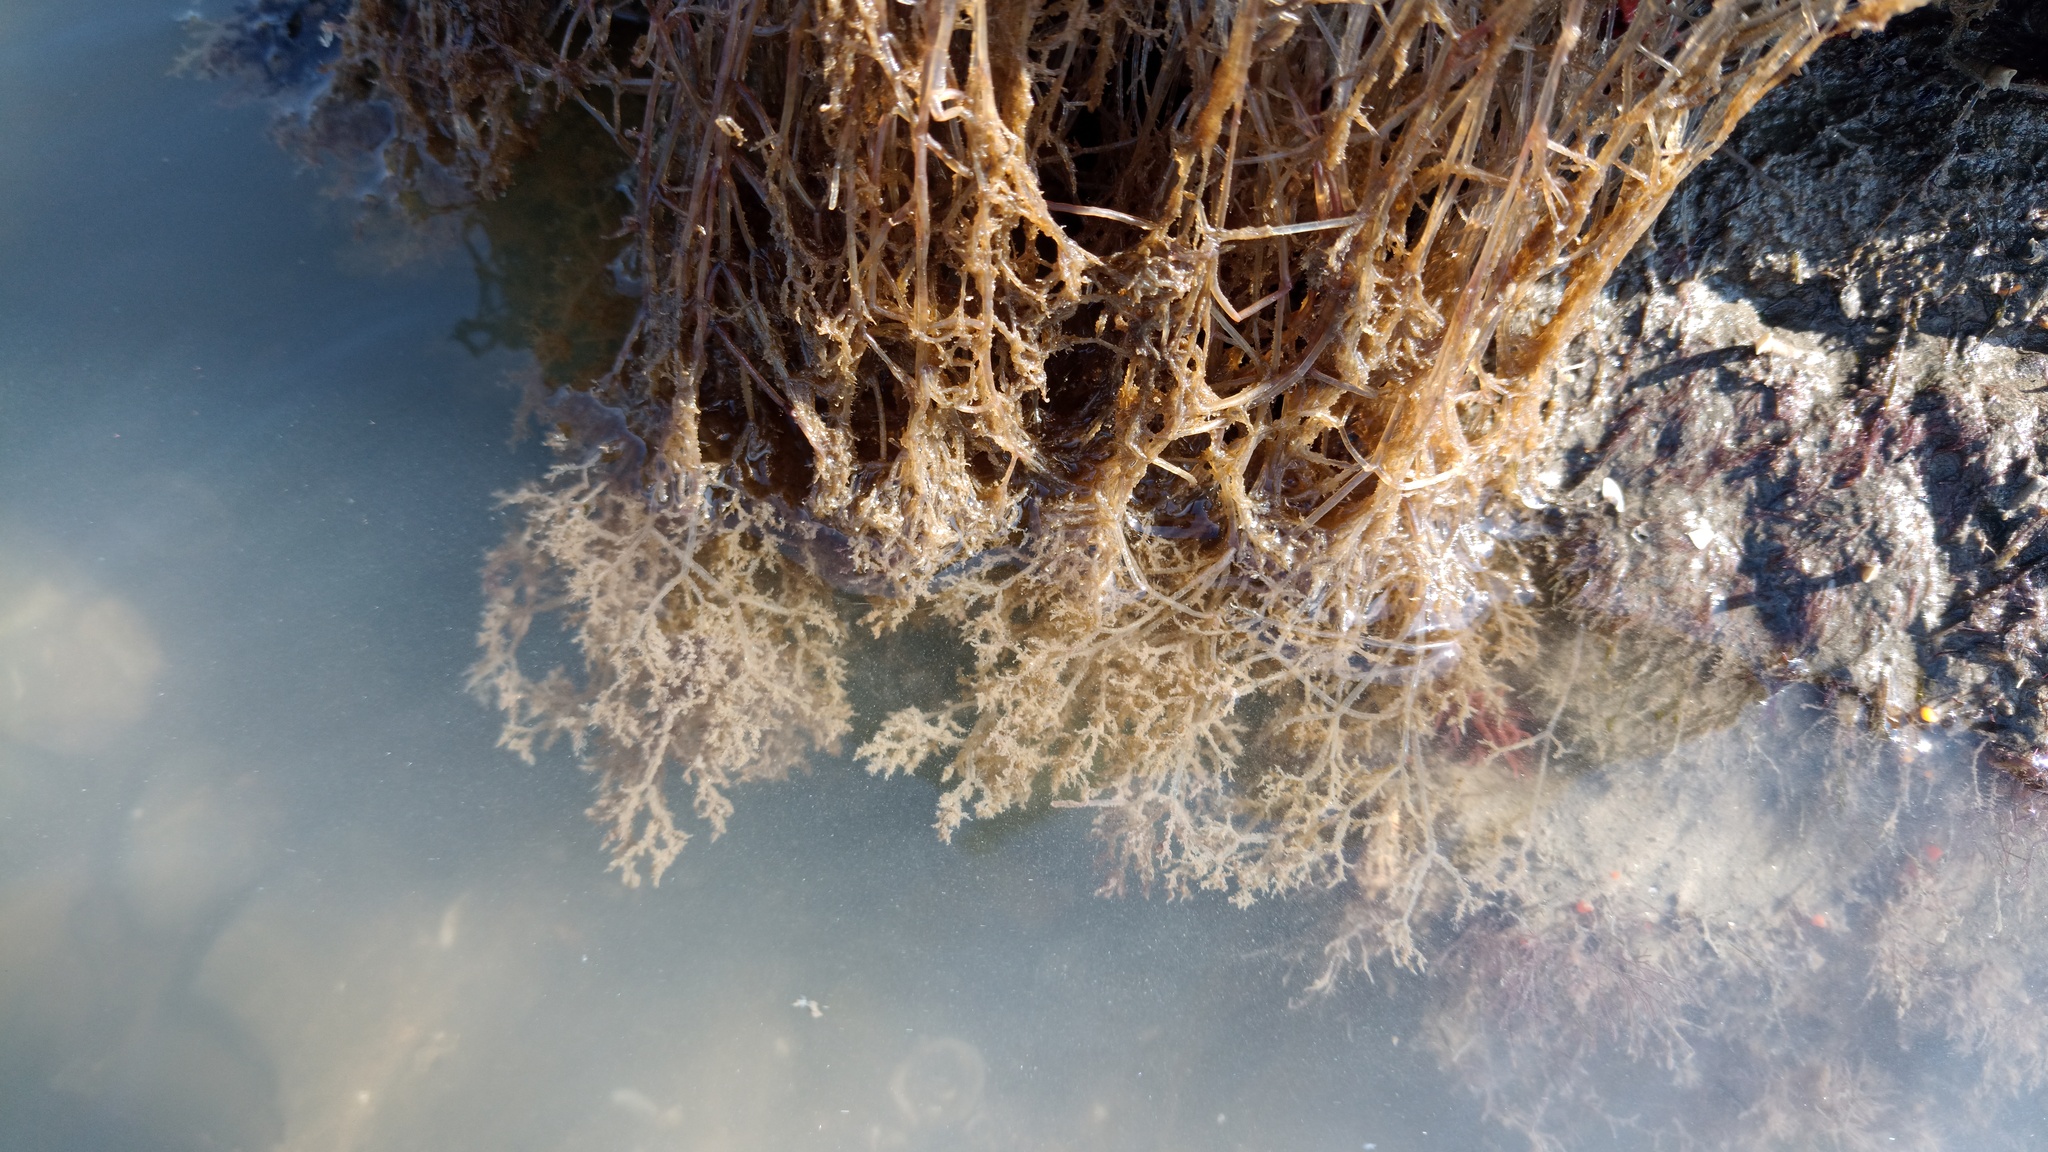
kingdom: Animalia
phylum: Bryozoa
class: Gymnolaemata
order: Ctenostomatida
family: Vesiculariidae
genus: Amathia
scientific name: Amathia verticillata
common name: Whorled zoobotryon
